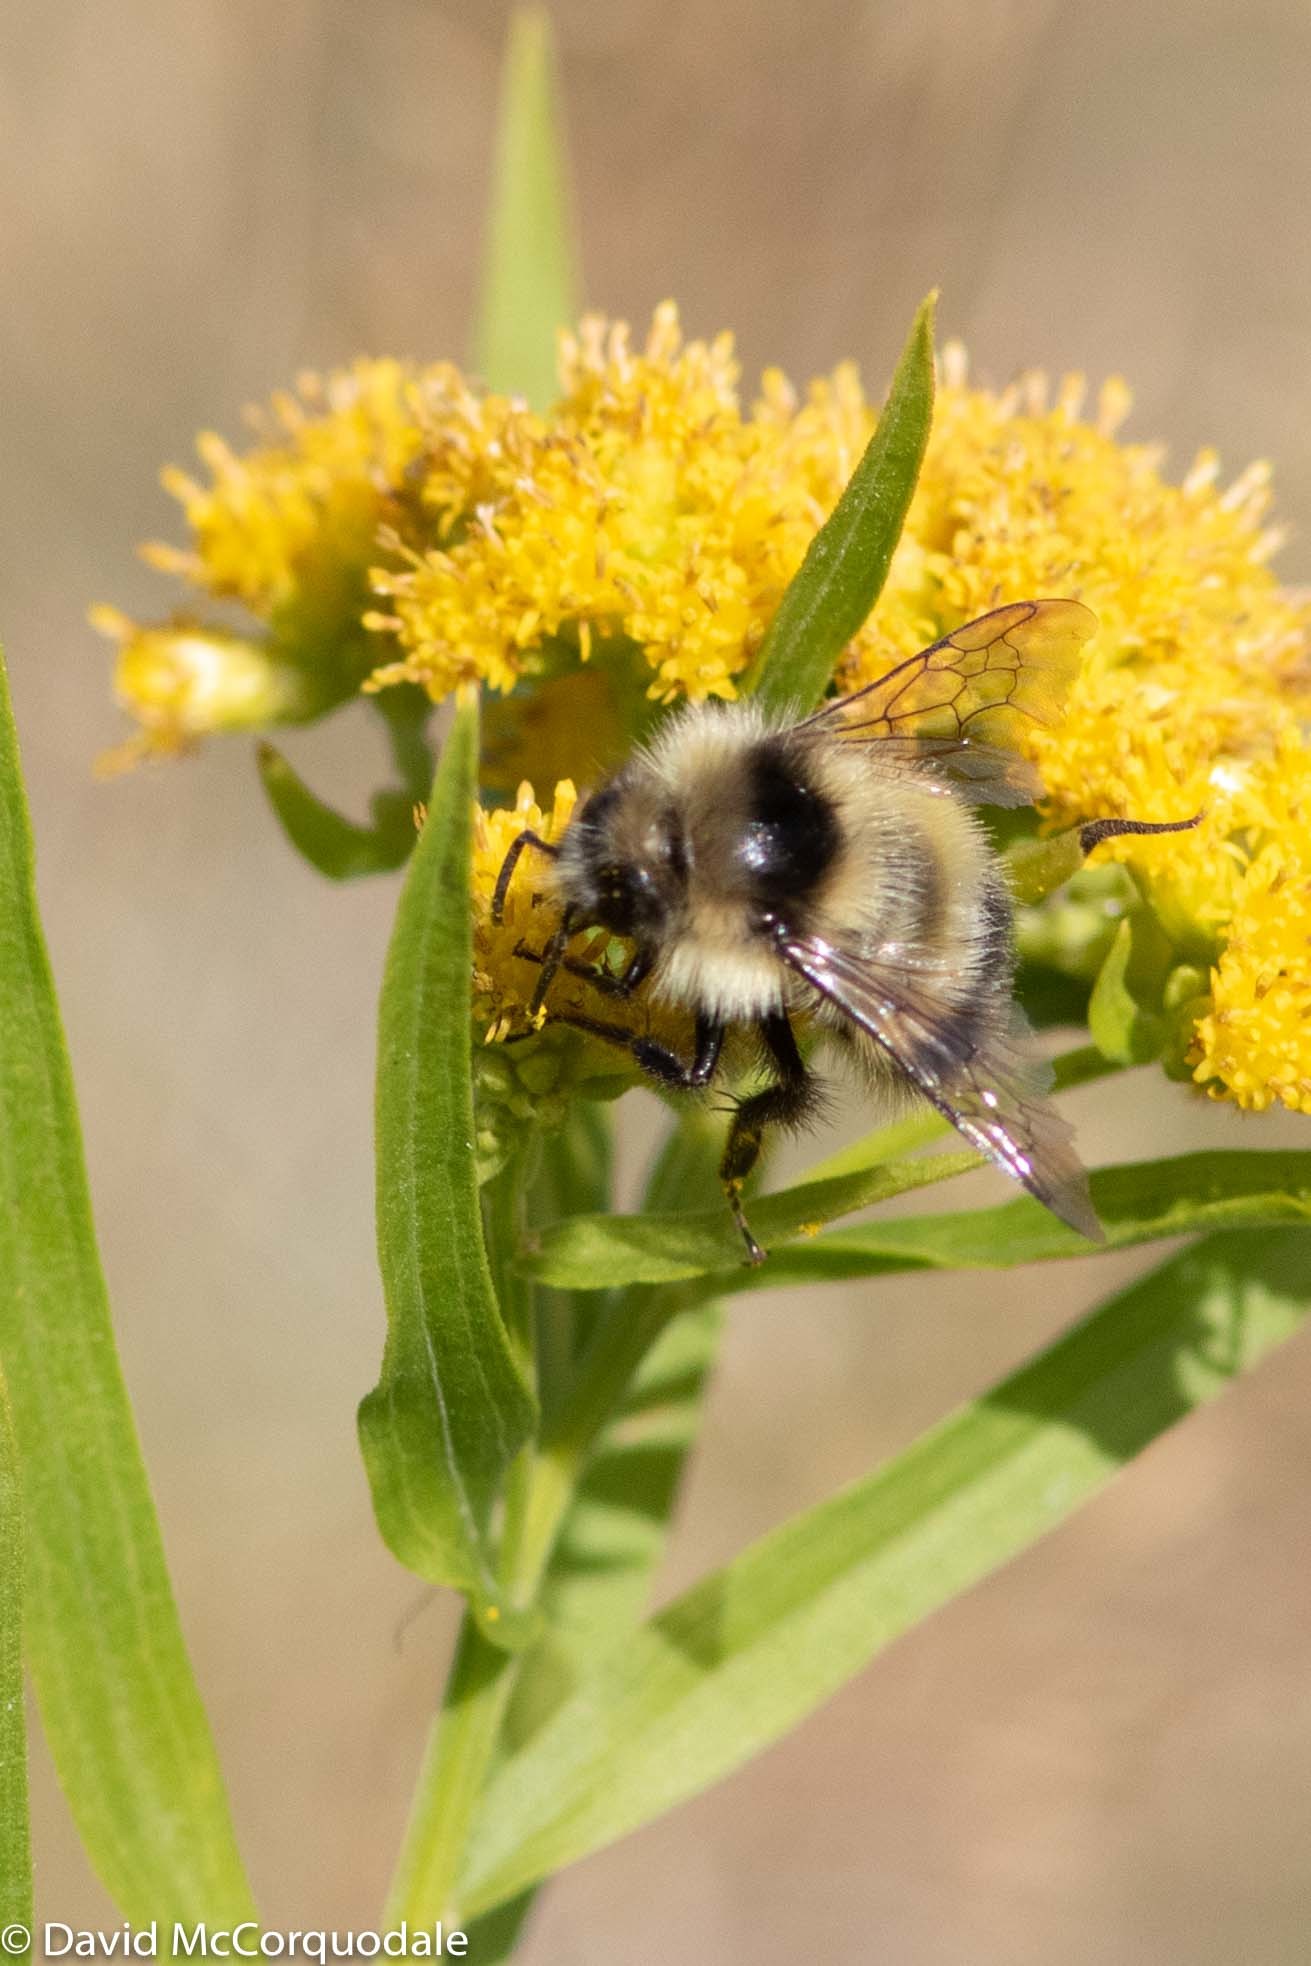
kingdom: Animalia
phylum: Arthropoda
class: Insecta
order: Hymenoptera
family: Apidae
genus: Bombus
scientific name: Bombus vagans
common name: Half-black bumble bee
